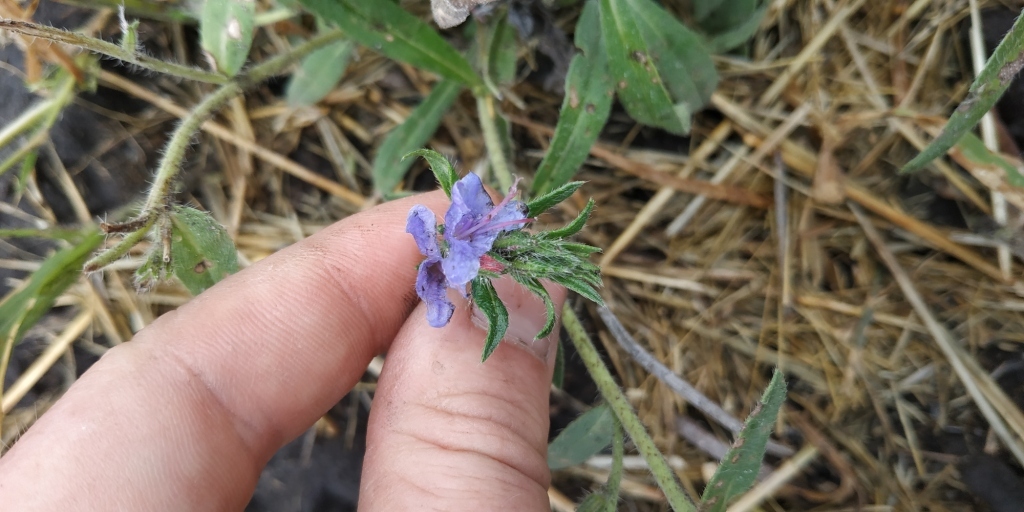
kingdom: Plantae
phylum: Tracheophyta
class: Magnoliopsida
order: Boraginales
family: Boraginaceae
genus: Echium
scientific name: Echium vulgare
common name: Common viper's bugloss
